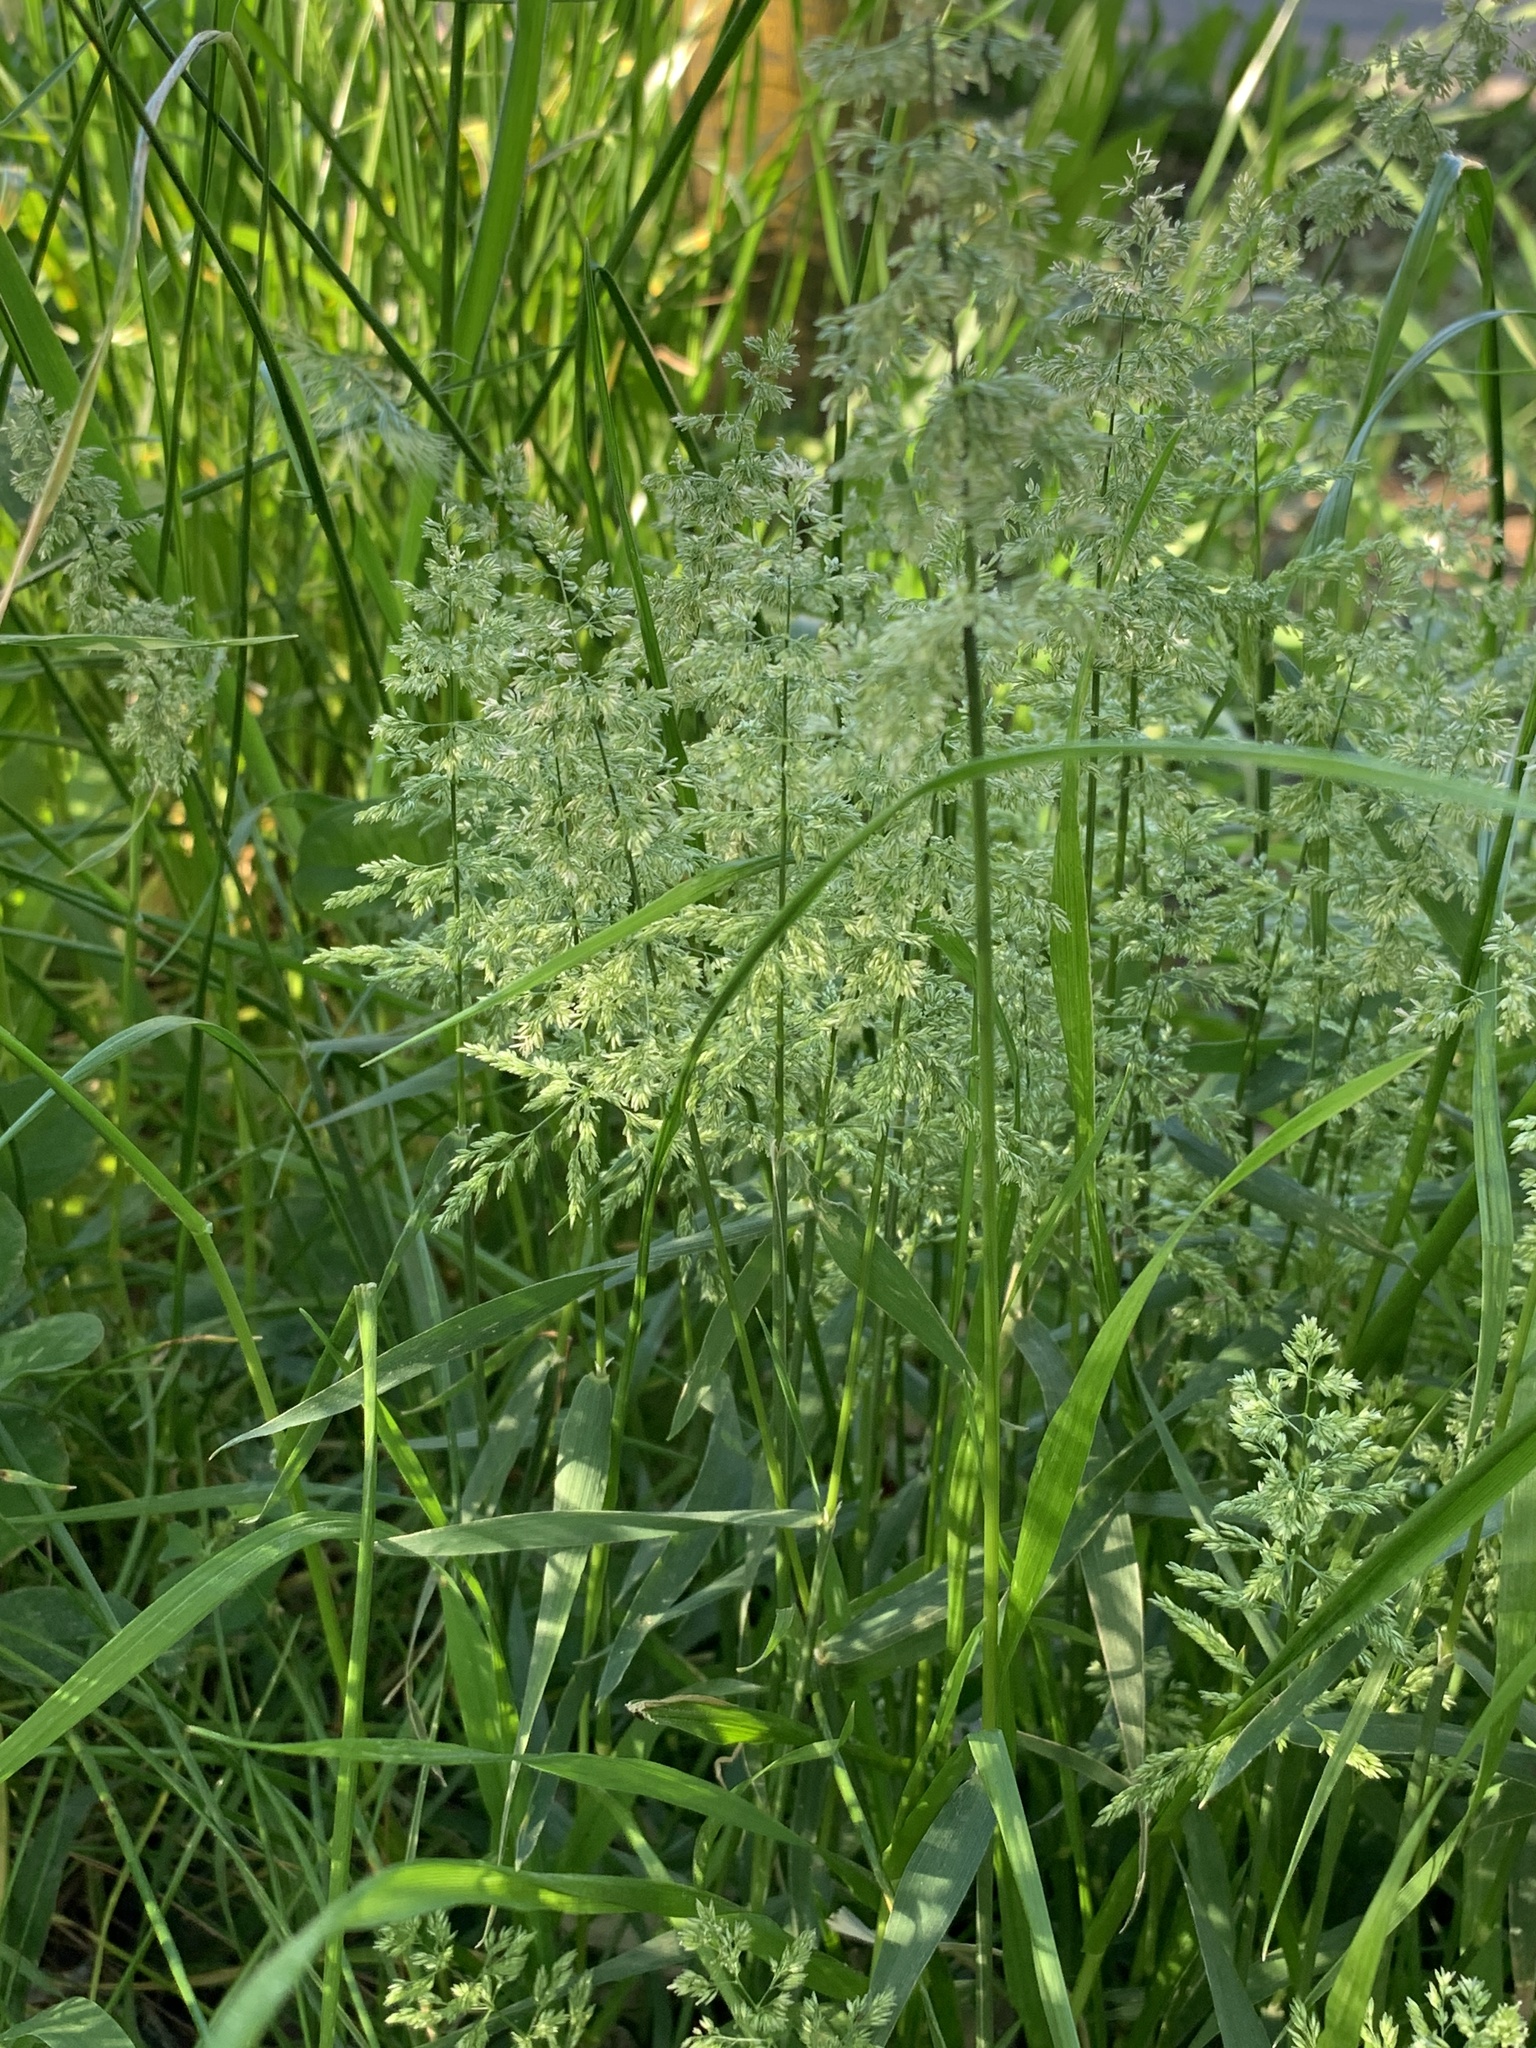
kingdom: Plantae
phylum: Tracheophyta
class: Liliopsida
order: Poales
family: Poaceae
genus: Polypogon
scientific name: Polypogon viridis
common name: Water bent
